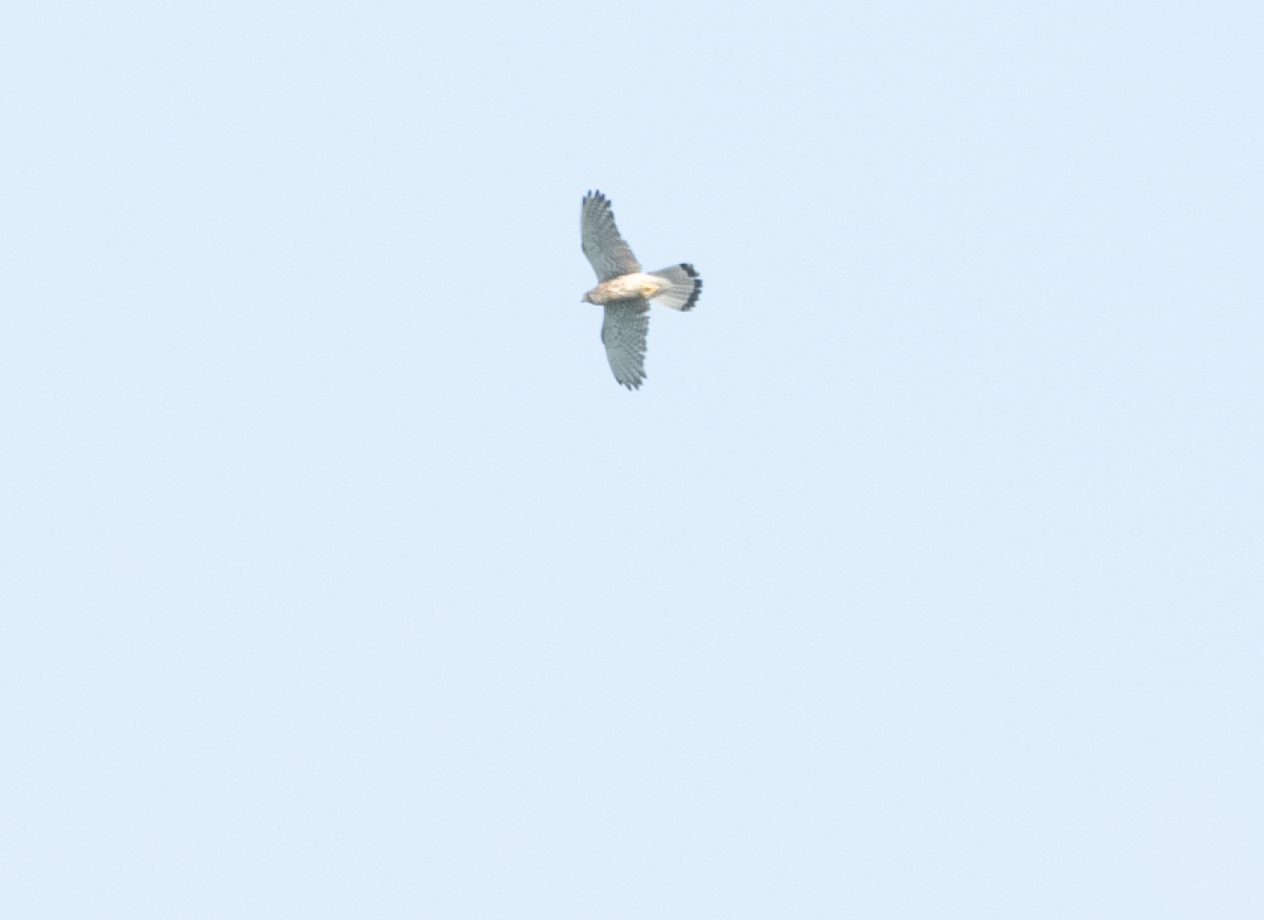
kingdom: Animalia
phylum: Chordata
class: Aves
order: Falconiformes
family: Falconidae
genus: Falco
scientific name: Falco tinnunculus
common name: Common kestrel
